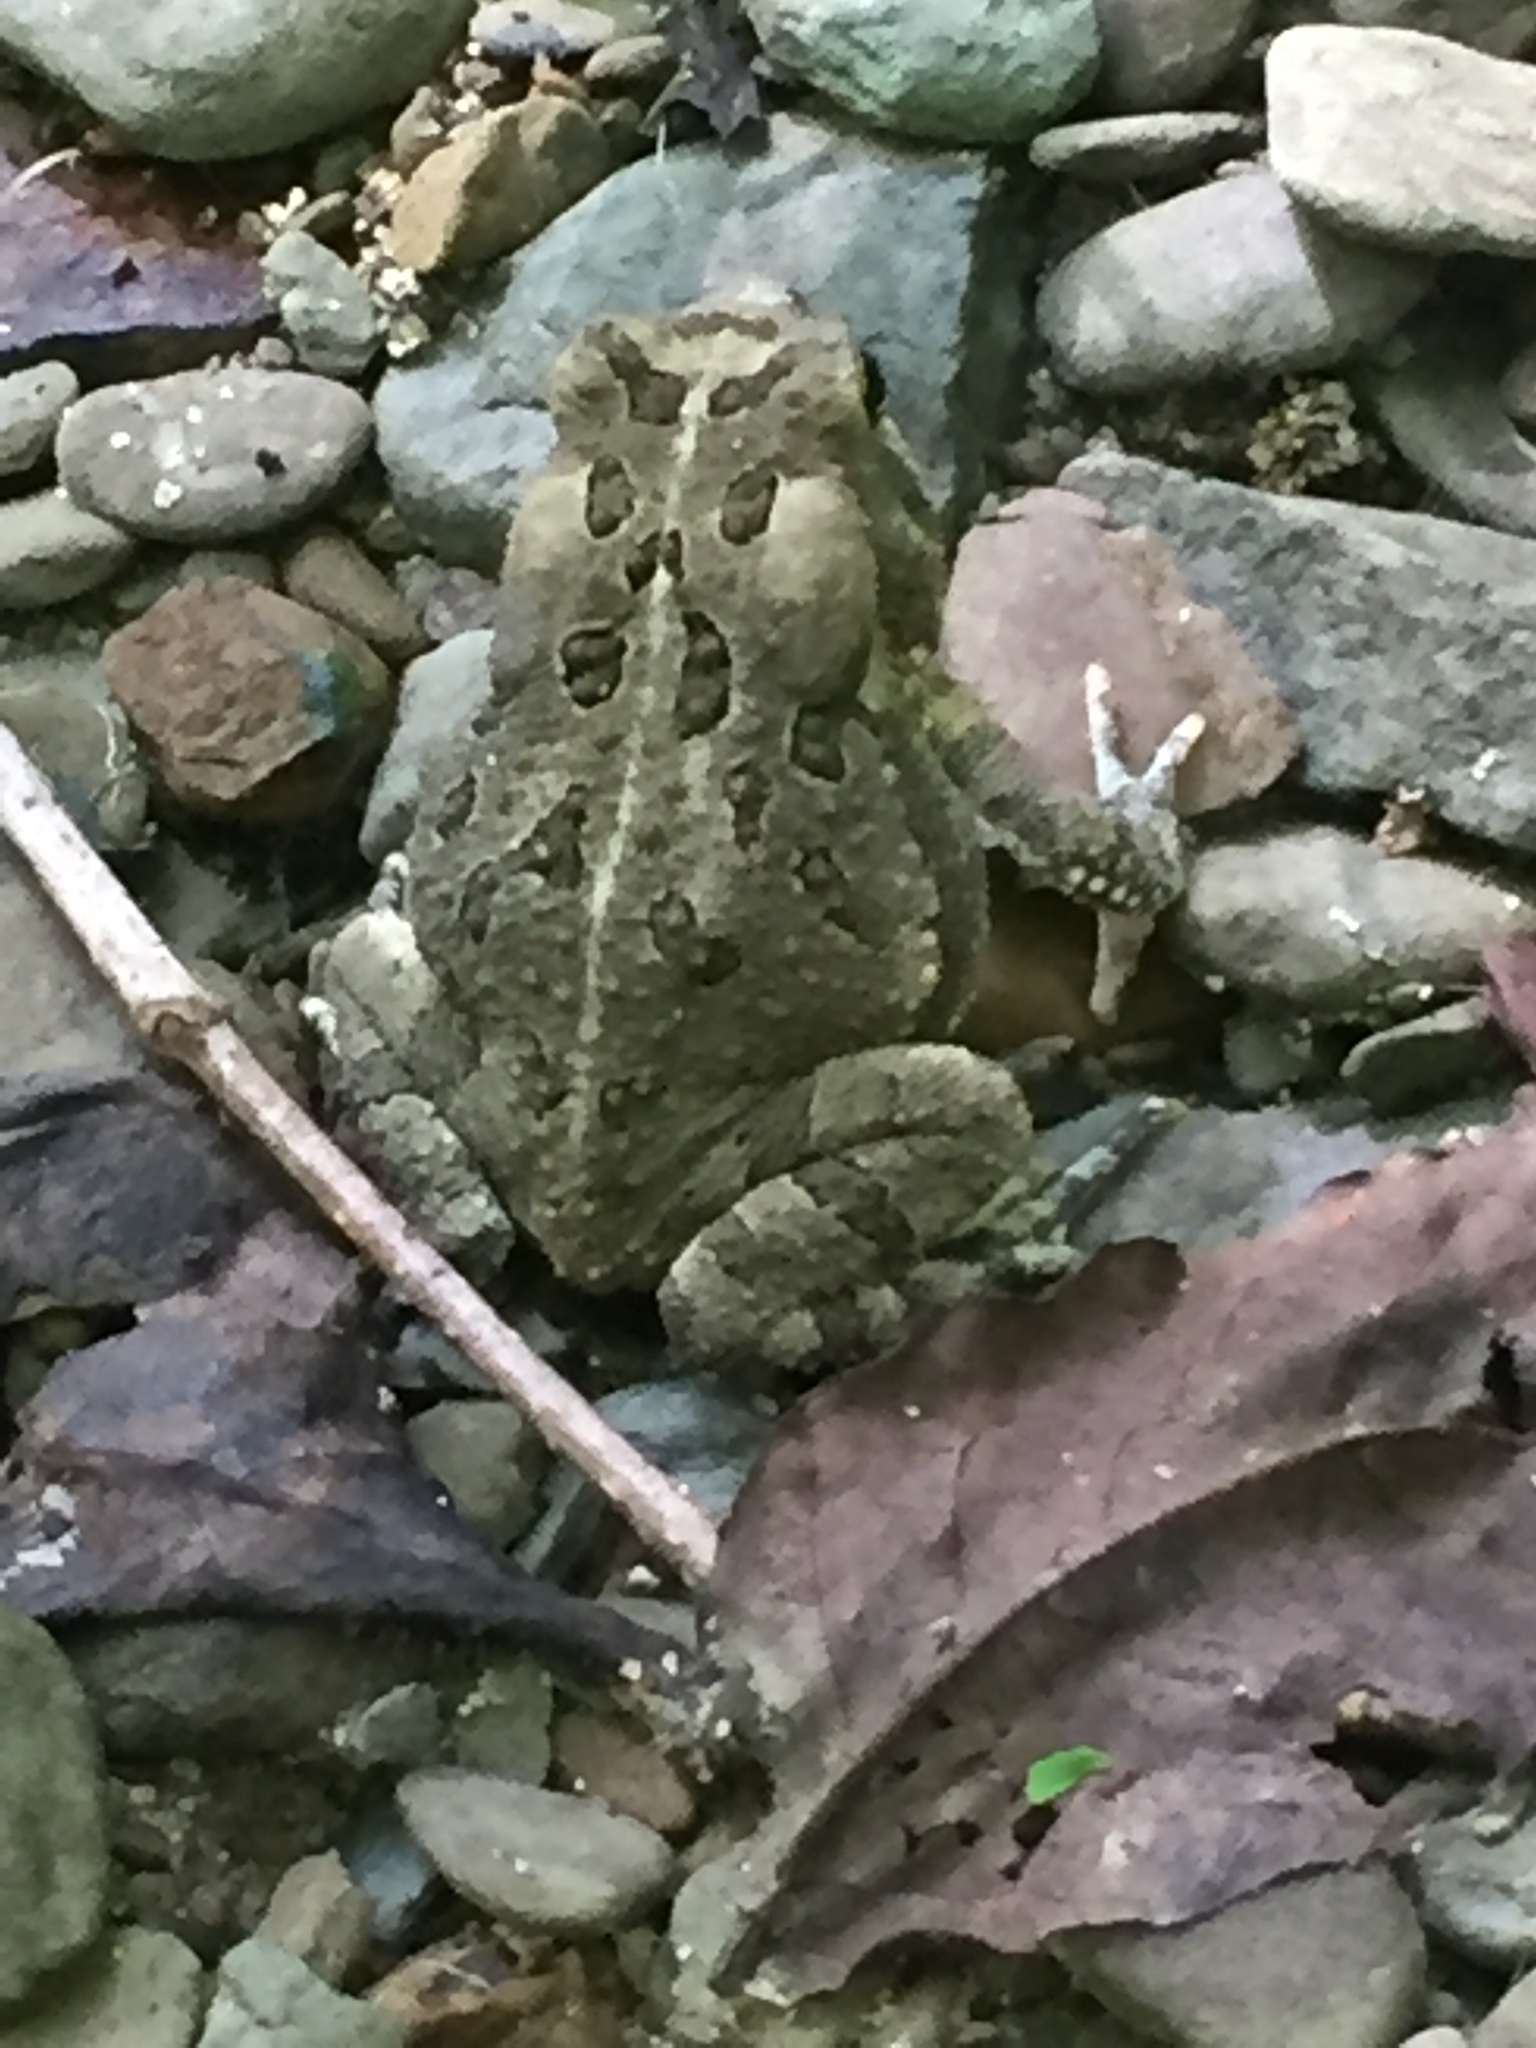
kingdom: Animalia
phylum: Chordata
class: Amphibia
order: Anura
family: Bufonidae
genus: Anaxyrus
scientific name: Anaxyrus fowleri
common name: Fowler's toad
